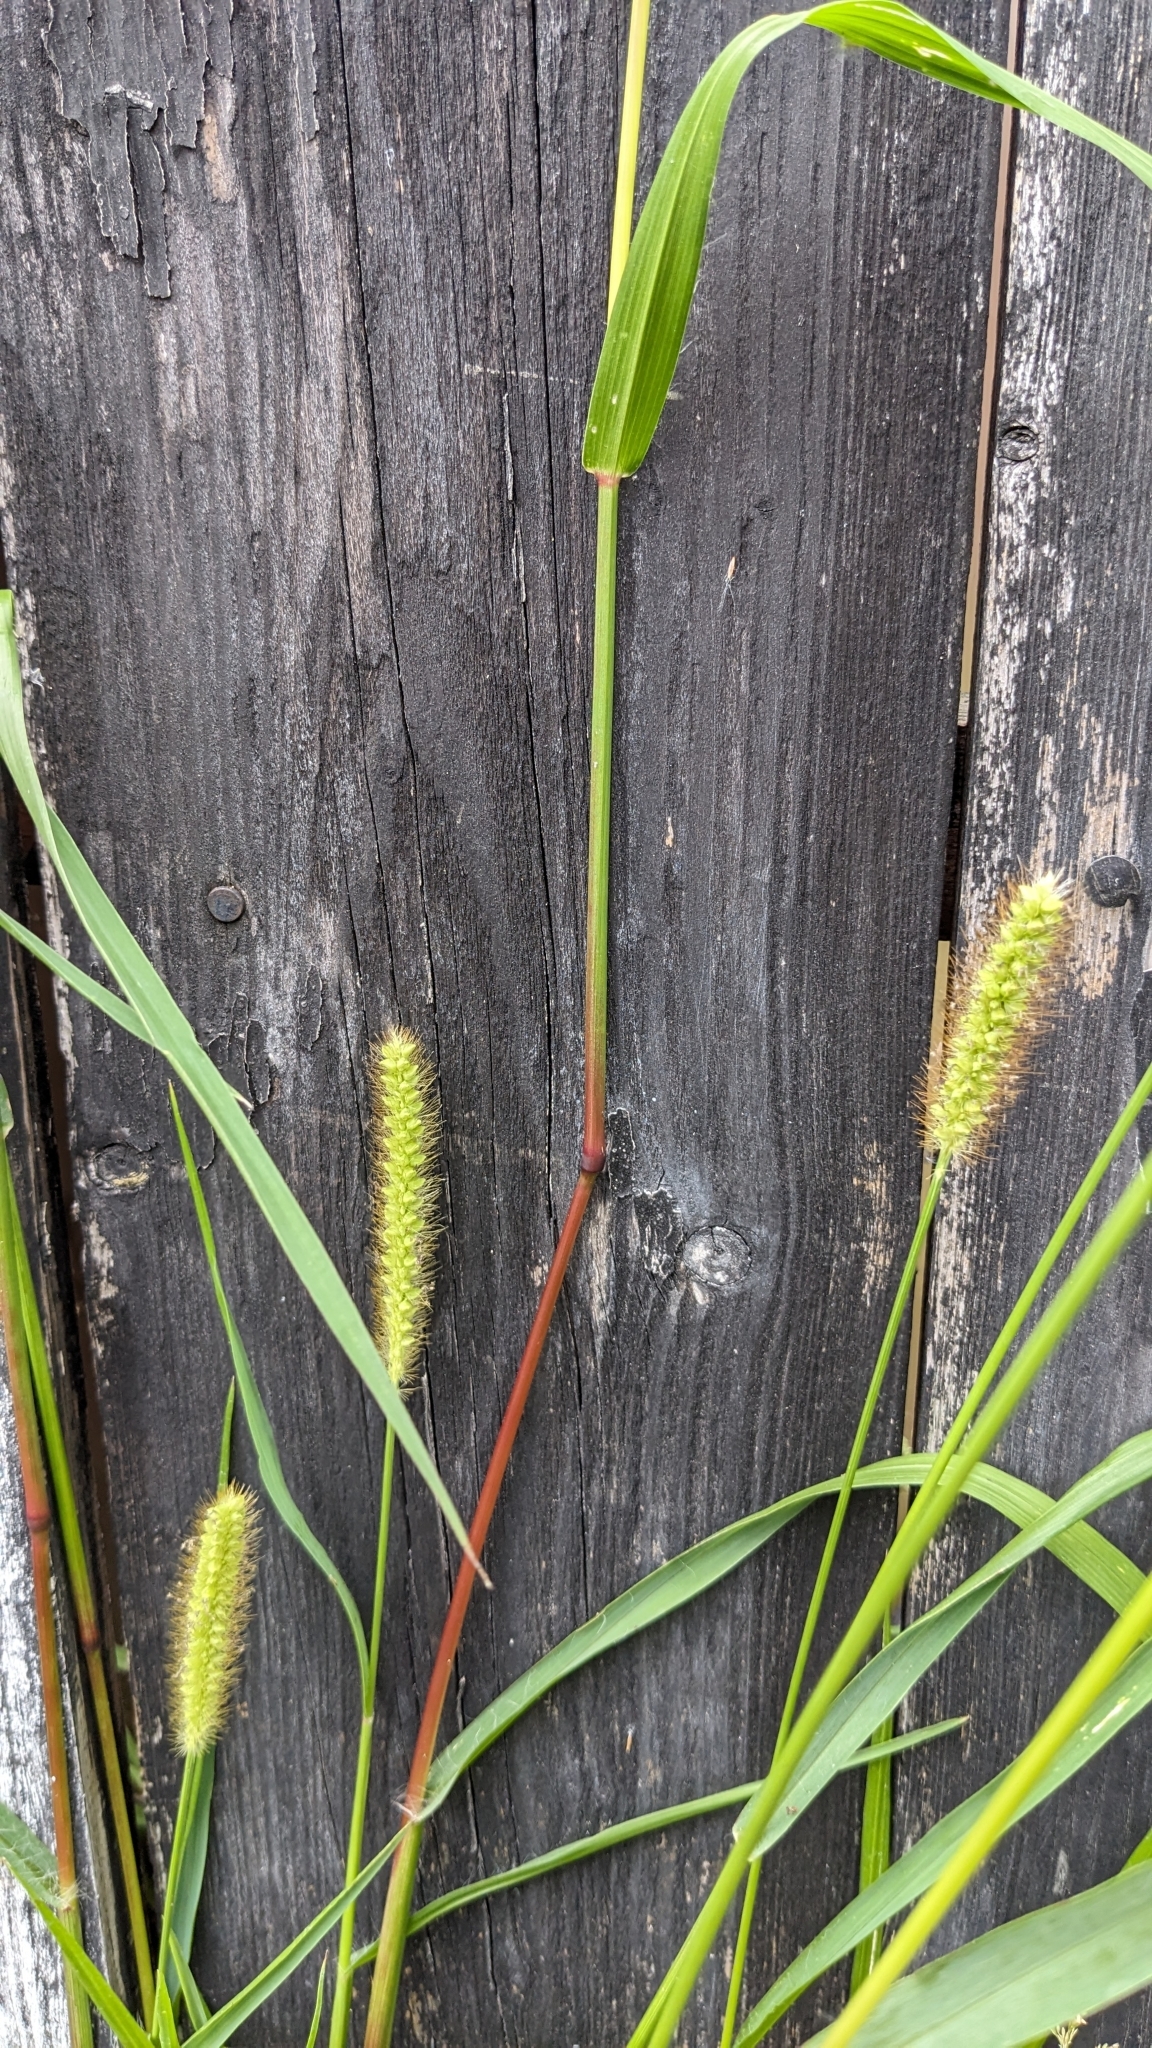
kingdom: Plantae
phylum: Tracheophyta
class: Liliopsida
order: Poales
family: Poaceae
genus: Setaria
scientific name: Setaria pumila
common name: Yellow bristle-grass
